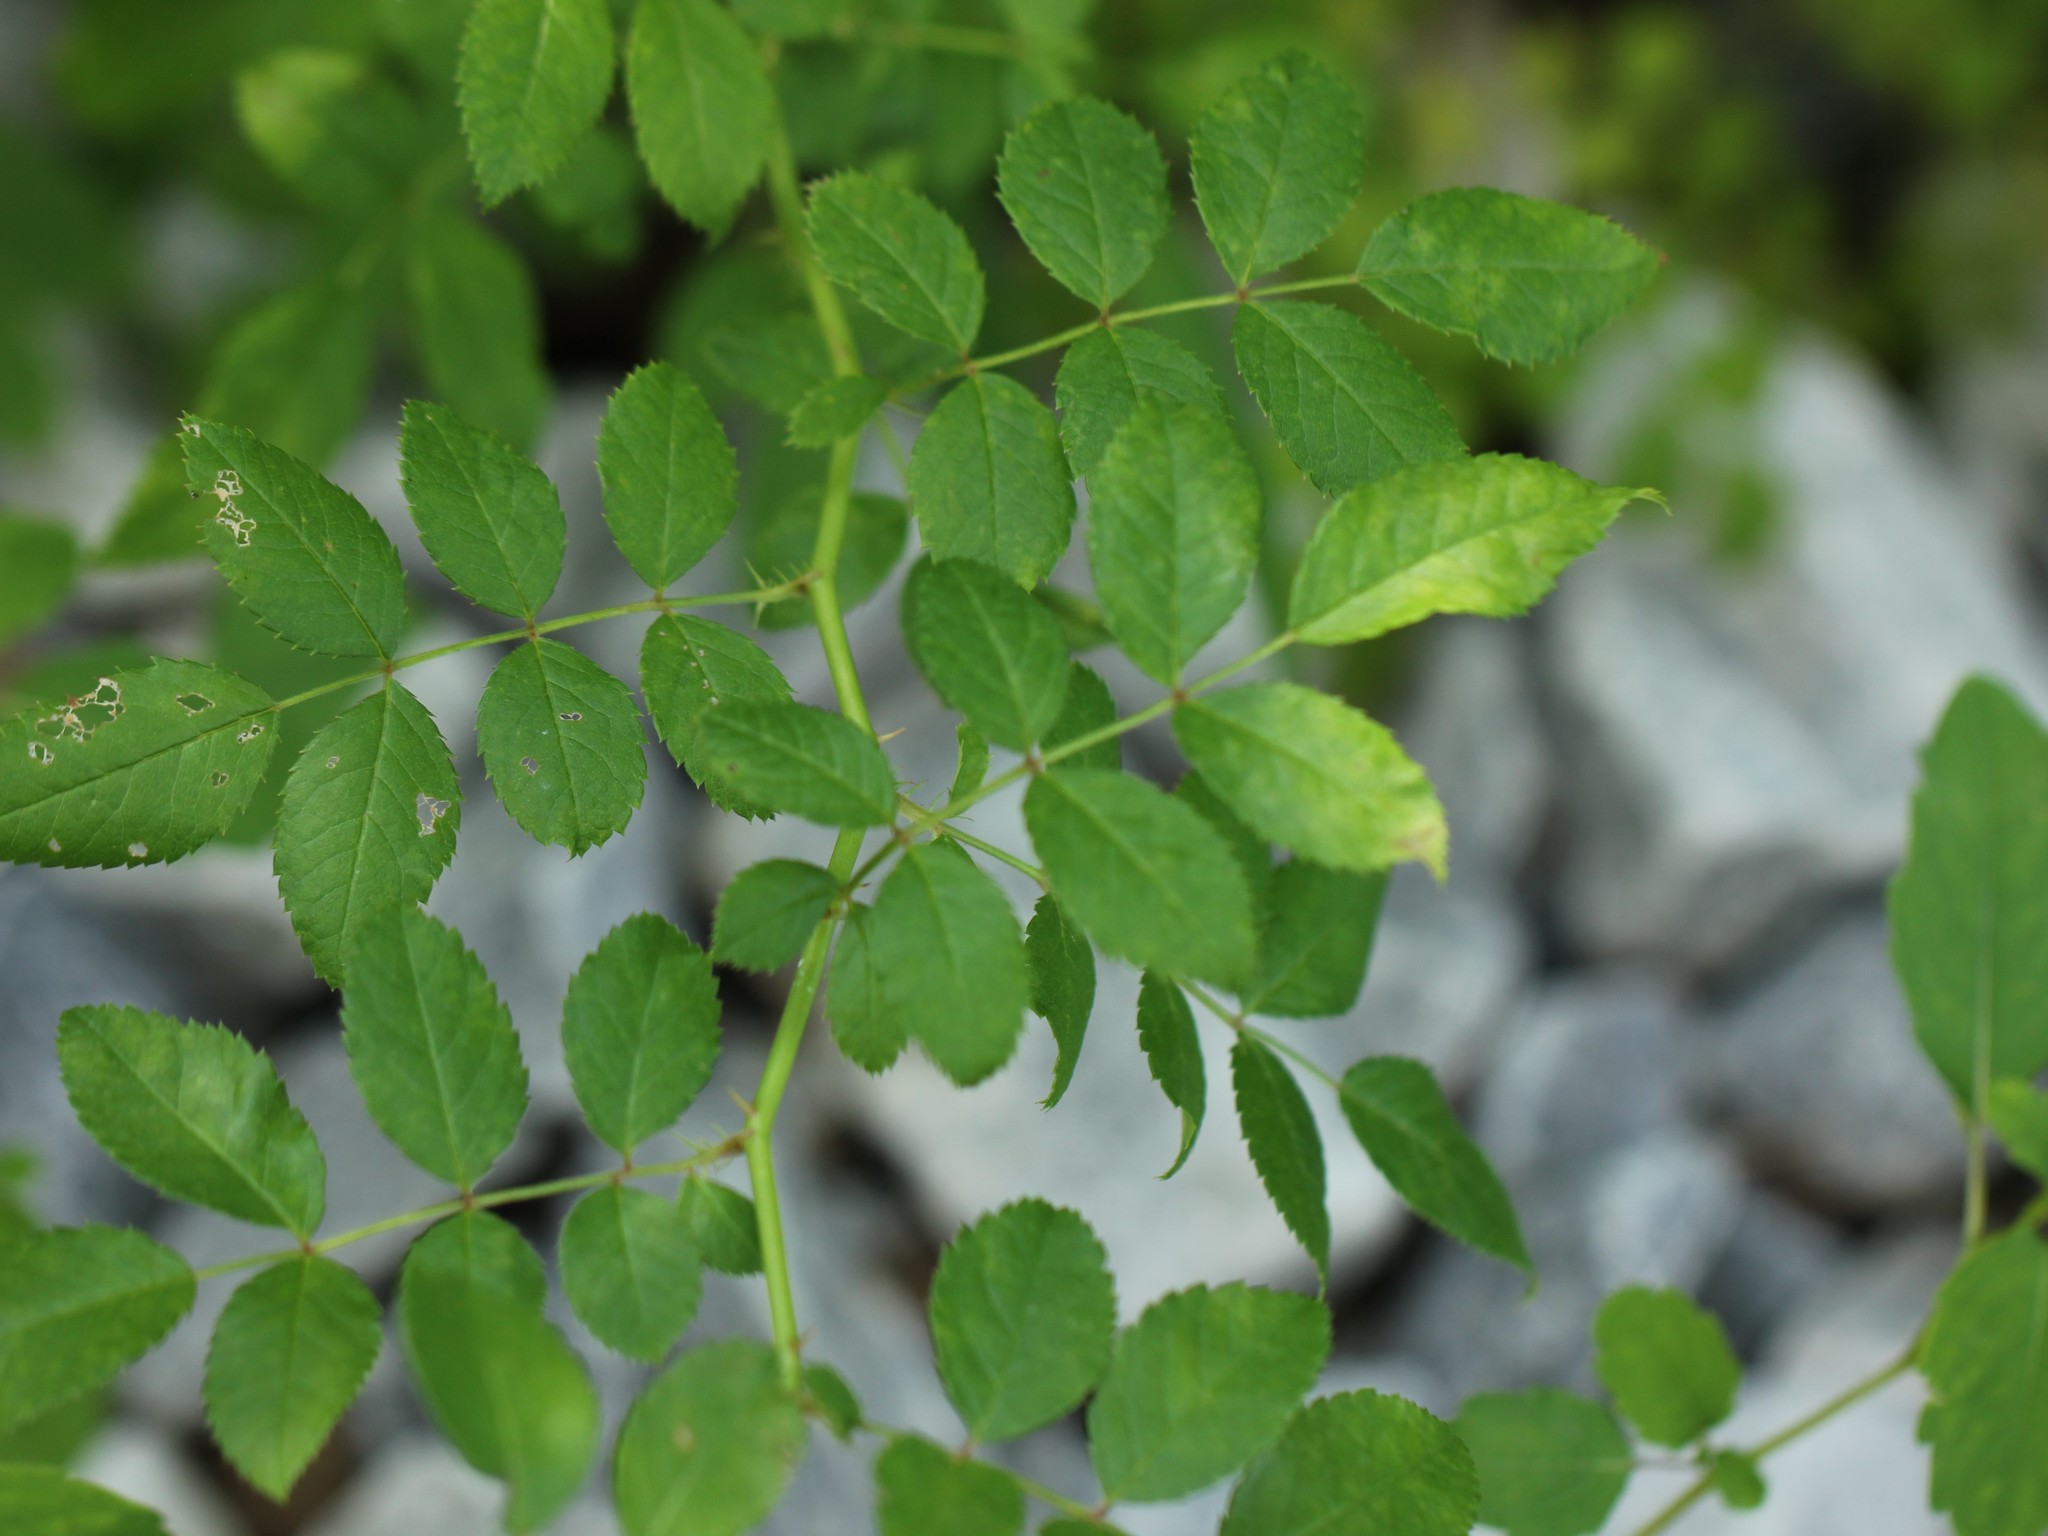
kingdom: Plantae
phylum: Tracheophyta
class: Magnoliopsida
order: Rosales
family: Rosaceae
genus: Rosa
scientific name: Rosa multiflora
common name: Multiflora rose
